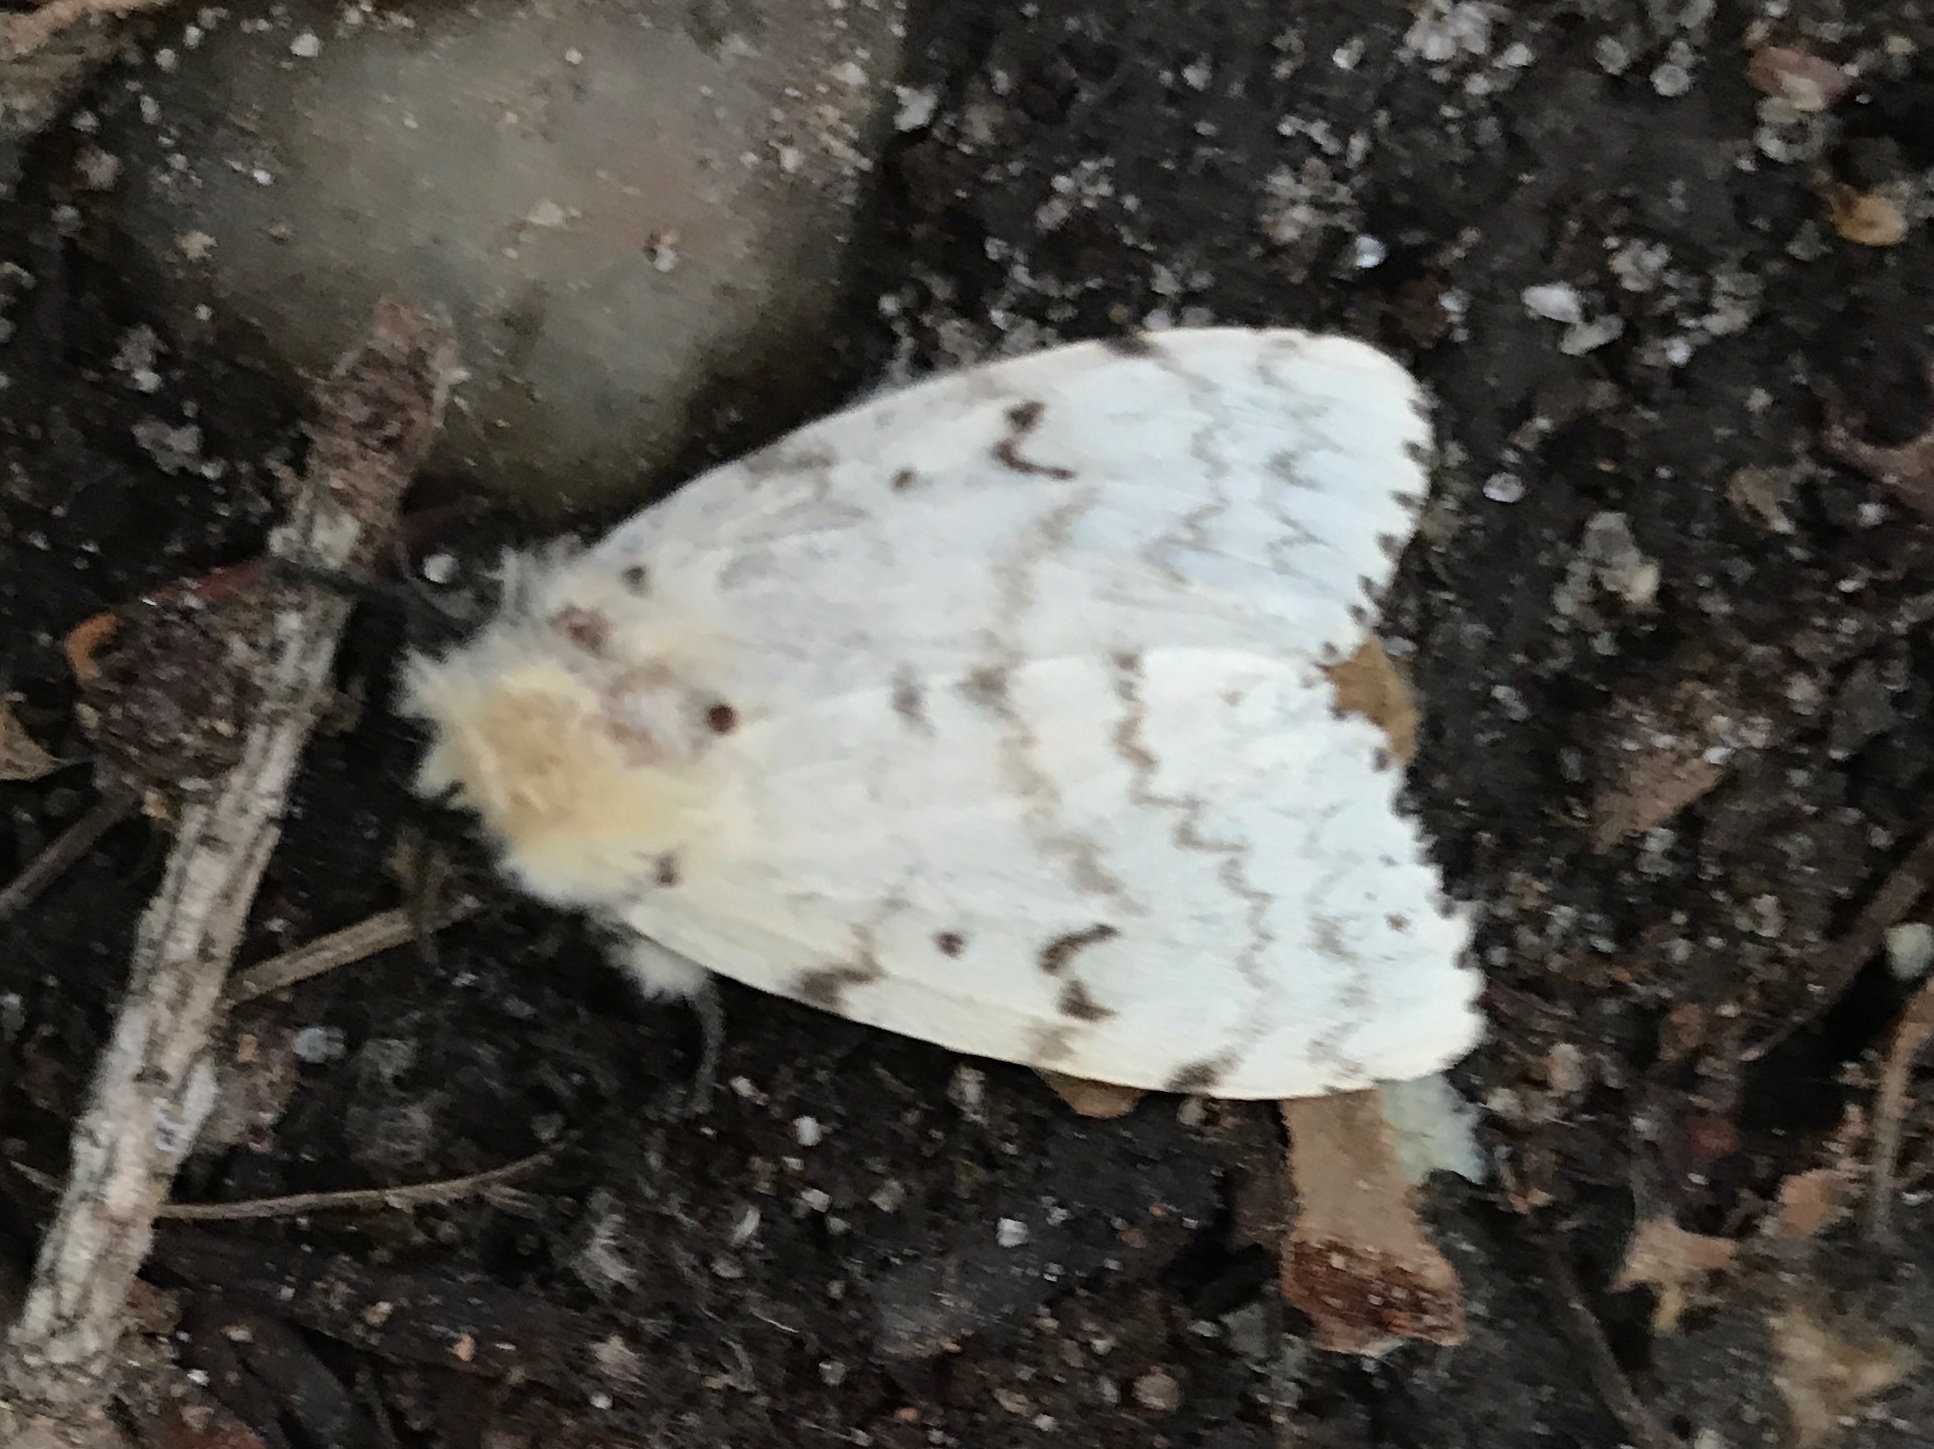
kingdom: Animalia
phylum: Arthropoda
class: Insecta
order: Lepidoptera
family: Erebidae
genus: Lymantria
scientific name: Lymantria dispar
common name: Gypsy moth
